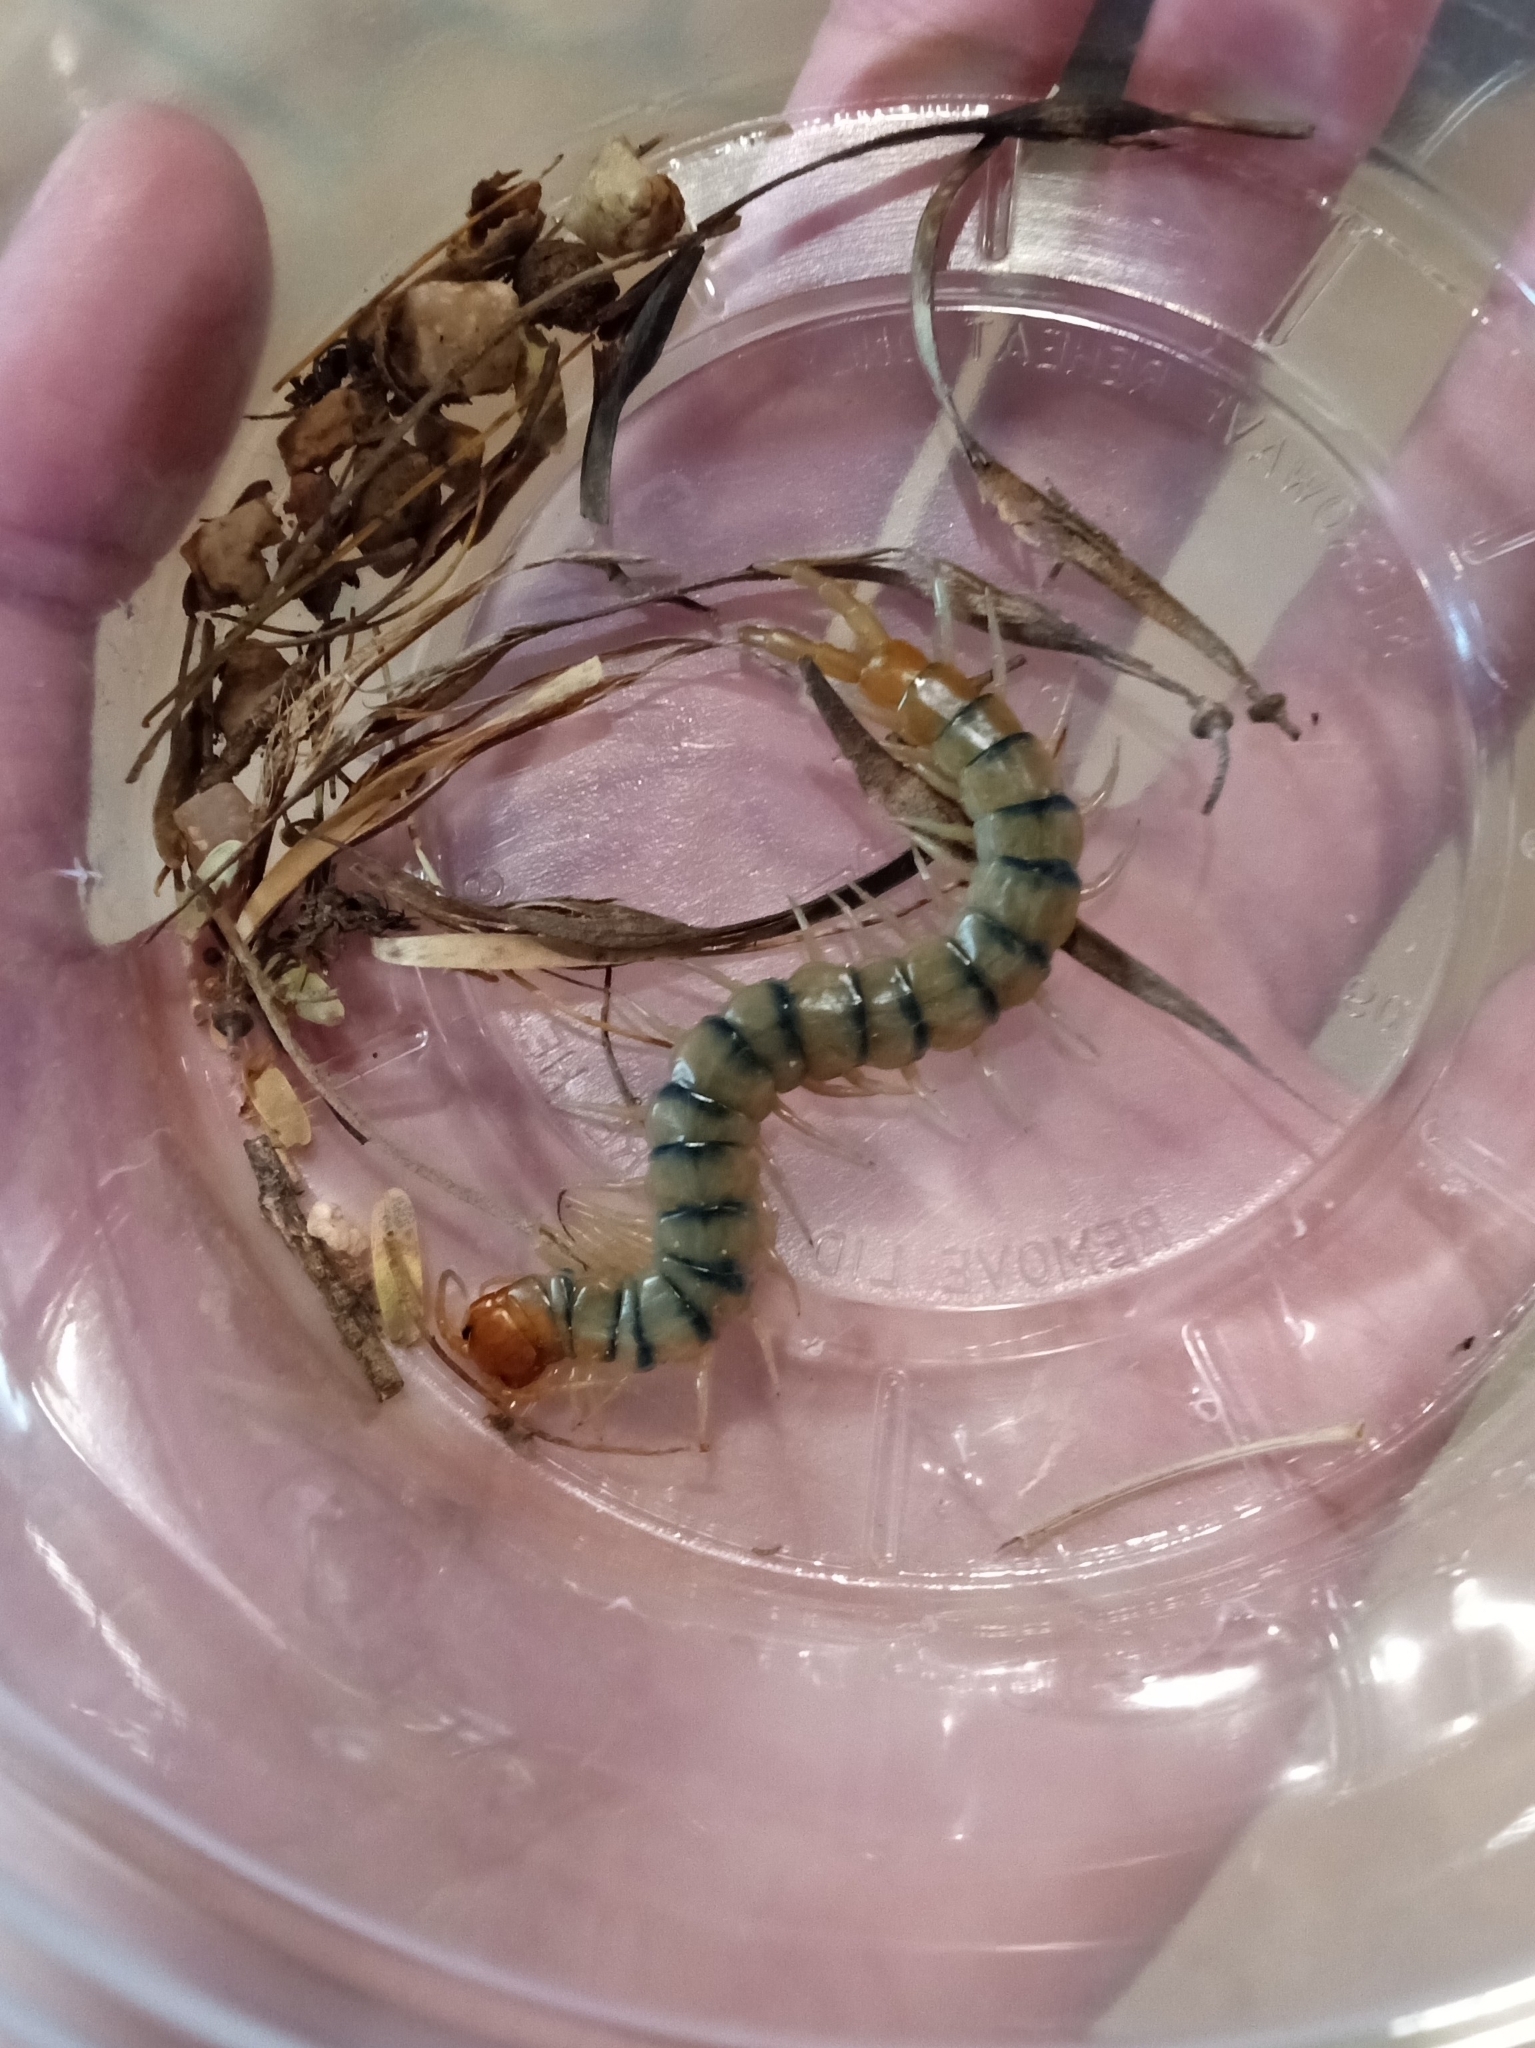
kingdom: Animalia
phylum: Arthropoda
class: Chilopoda
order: Scolopendromorpha
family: Scolopendridae
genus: Scolopendra
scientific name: Scolopendra polymorpha
